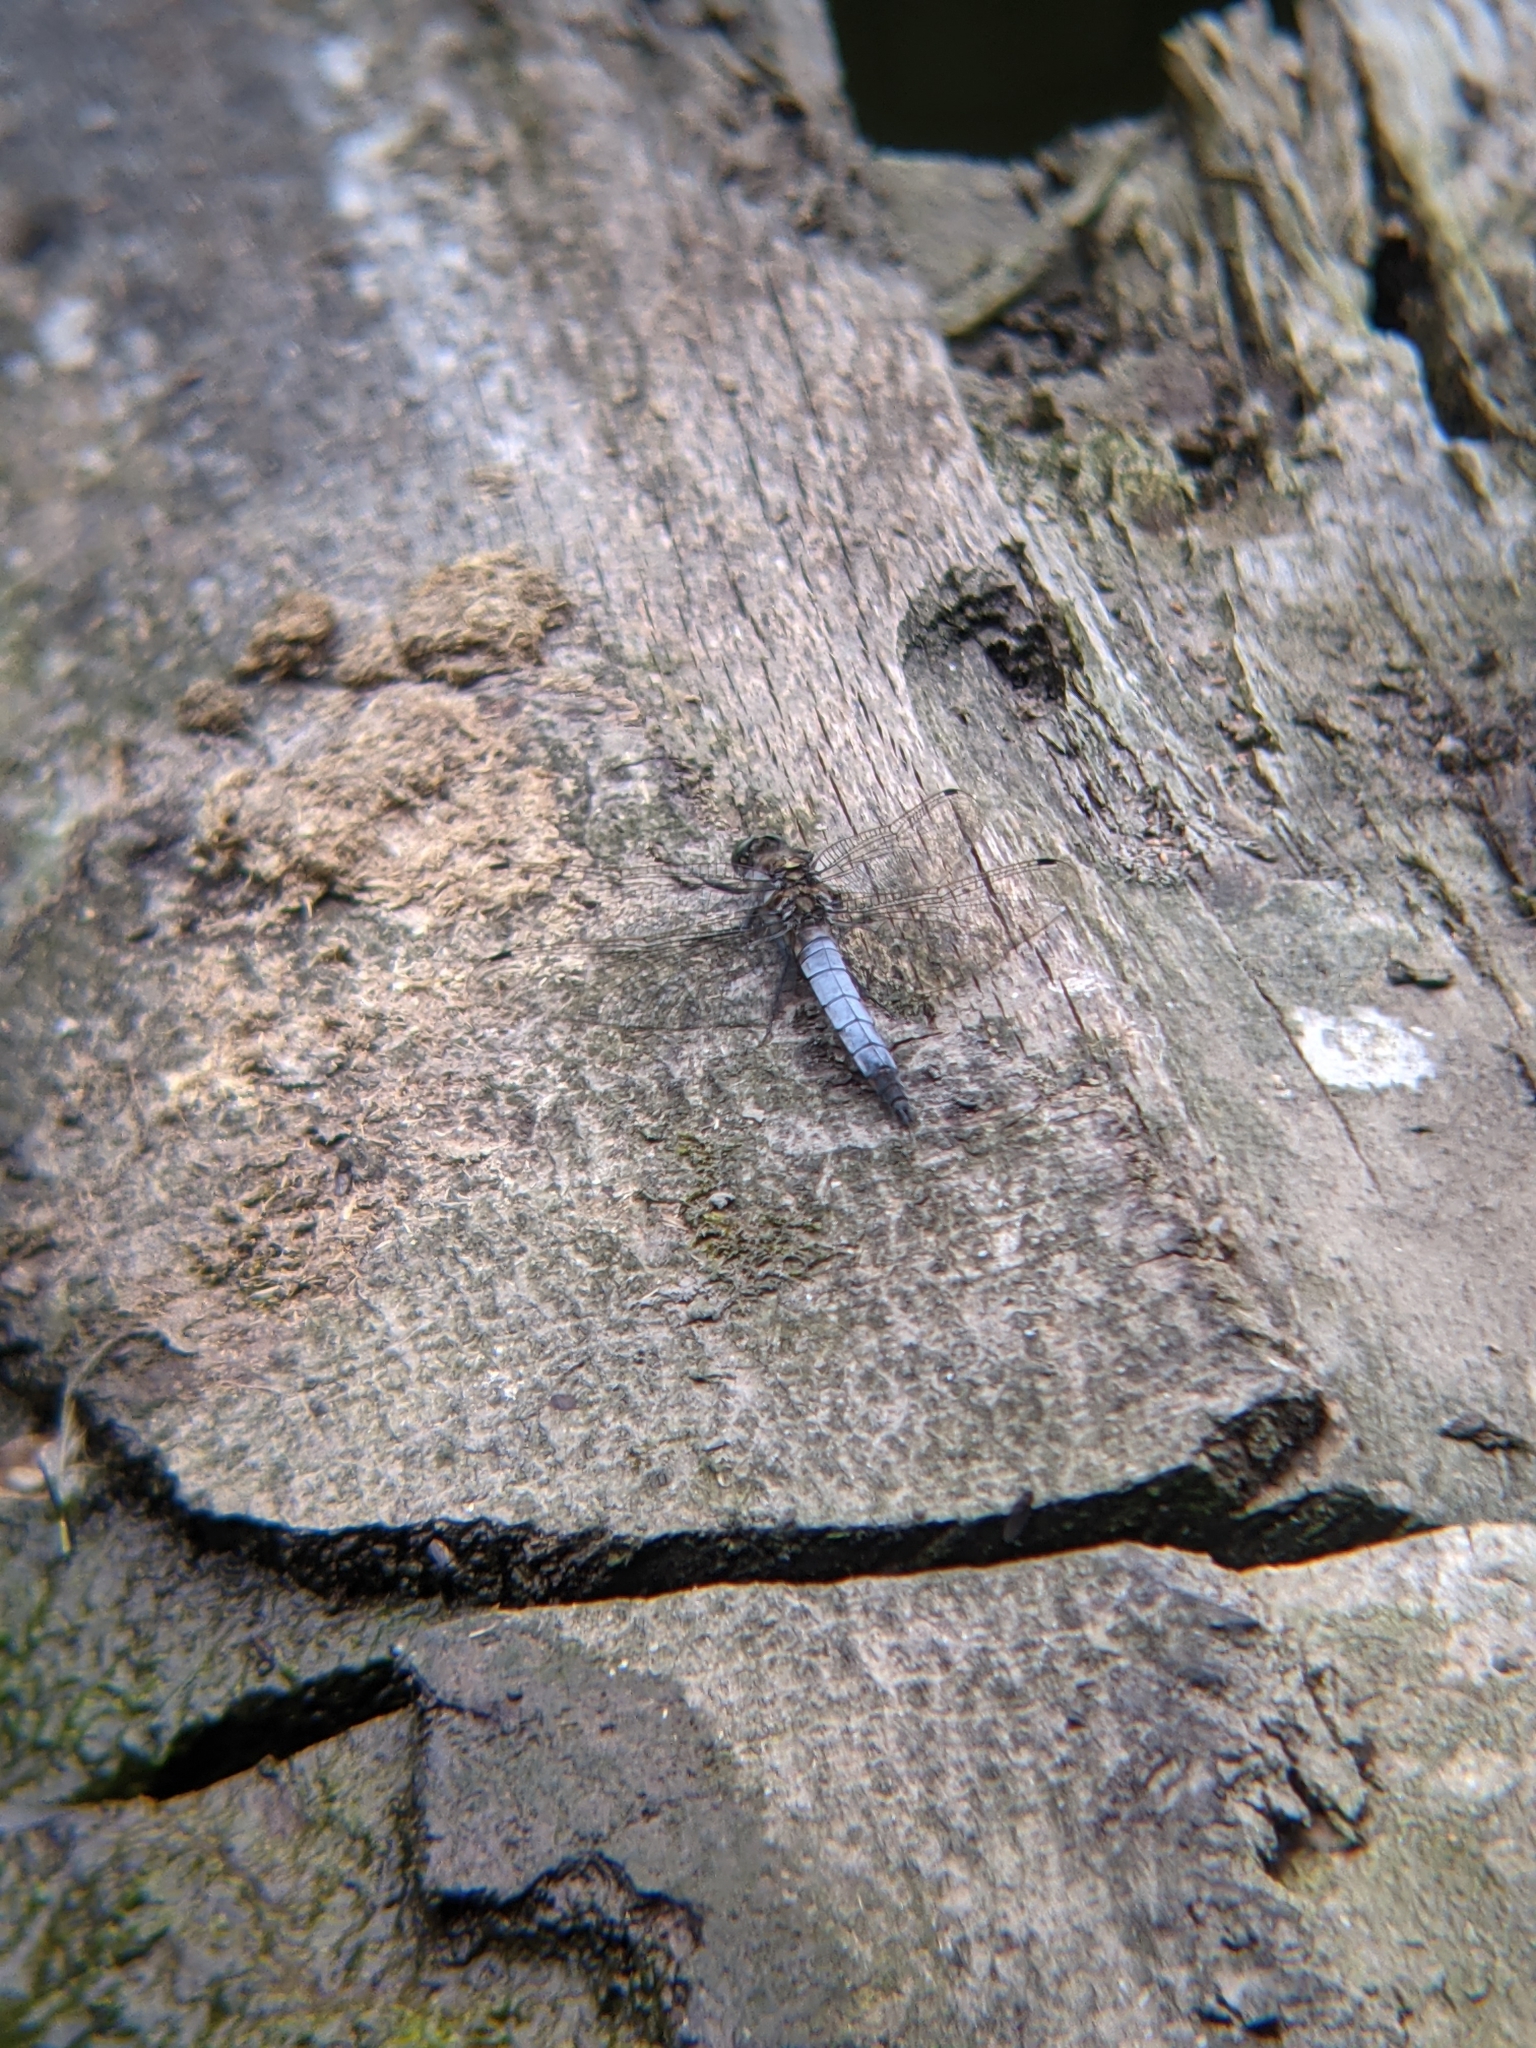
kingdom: Animalia
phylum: Arthropoda
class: Insecta
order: Odonata
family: Libellulidae
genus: Orthetrum
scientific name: Orthetrum cancellatum
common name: Black-tailed skimmer
